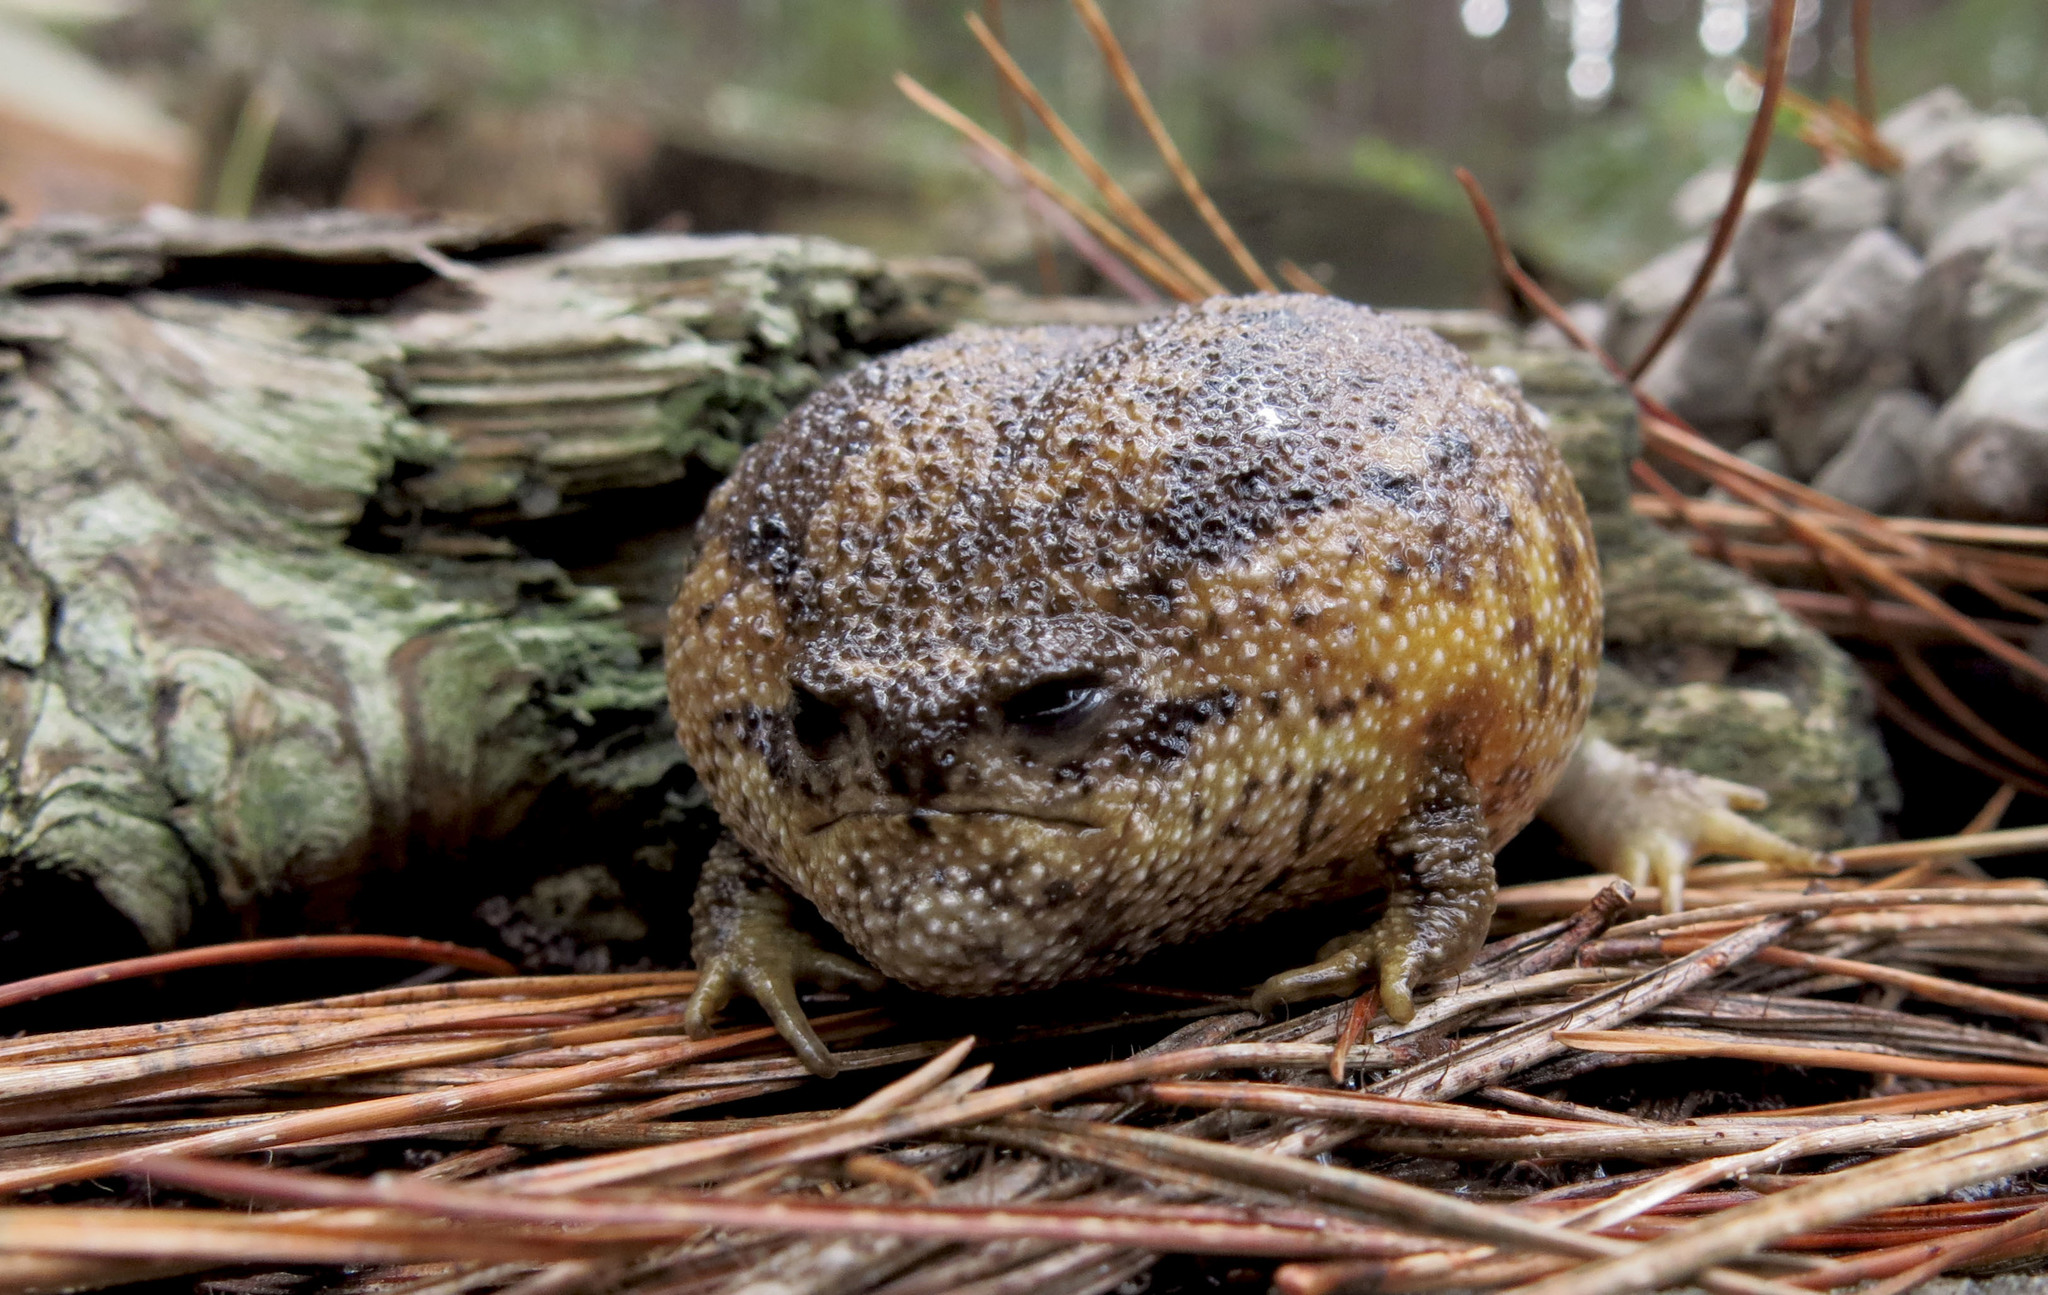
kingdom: Animalia
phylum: Chordata
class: Amphibia
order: Anura
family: Brevicipitidae
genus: Breviceps
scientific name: Breviceps gibbosus
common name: Cape rain frog
